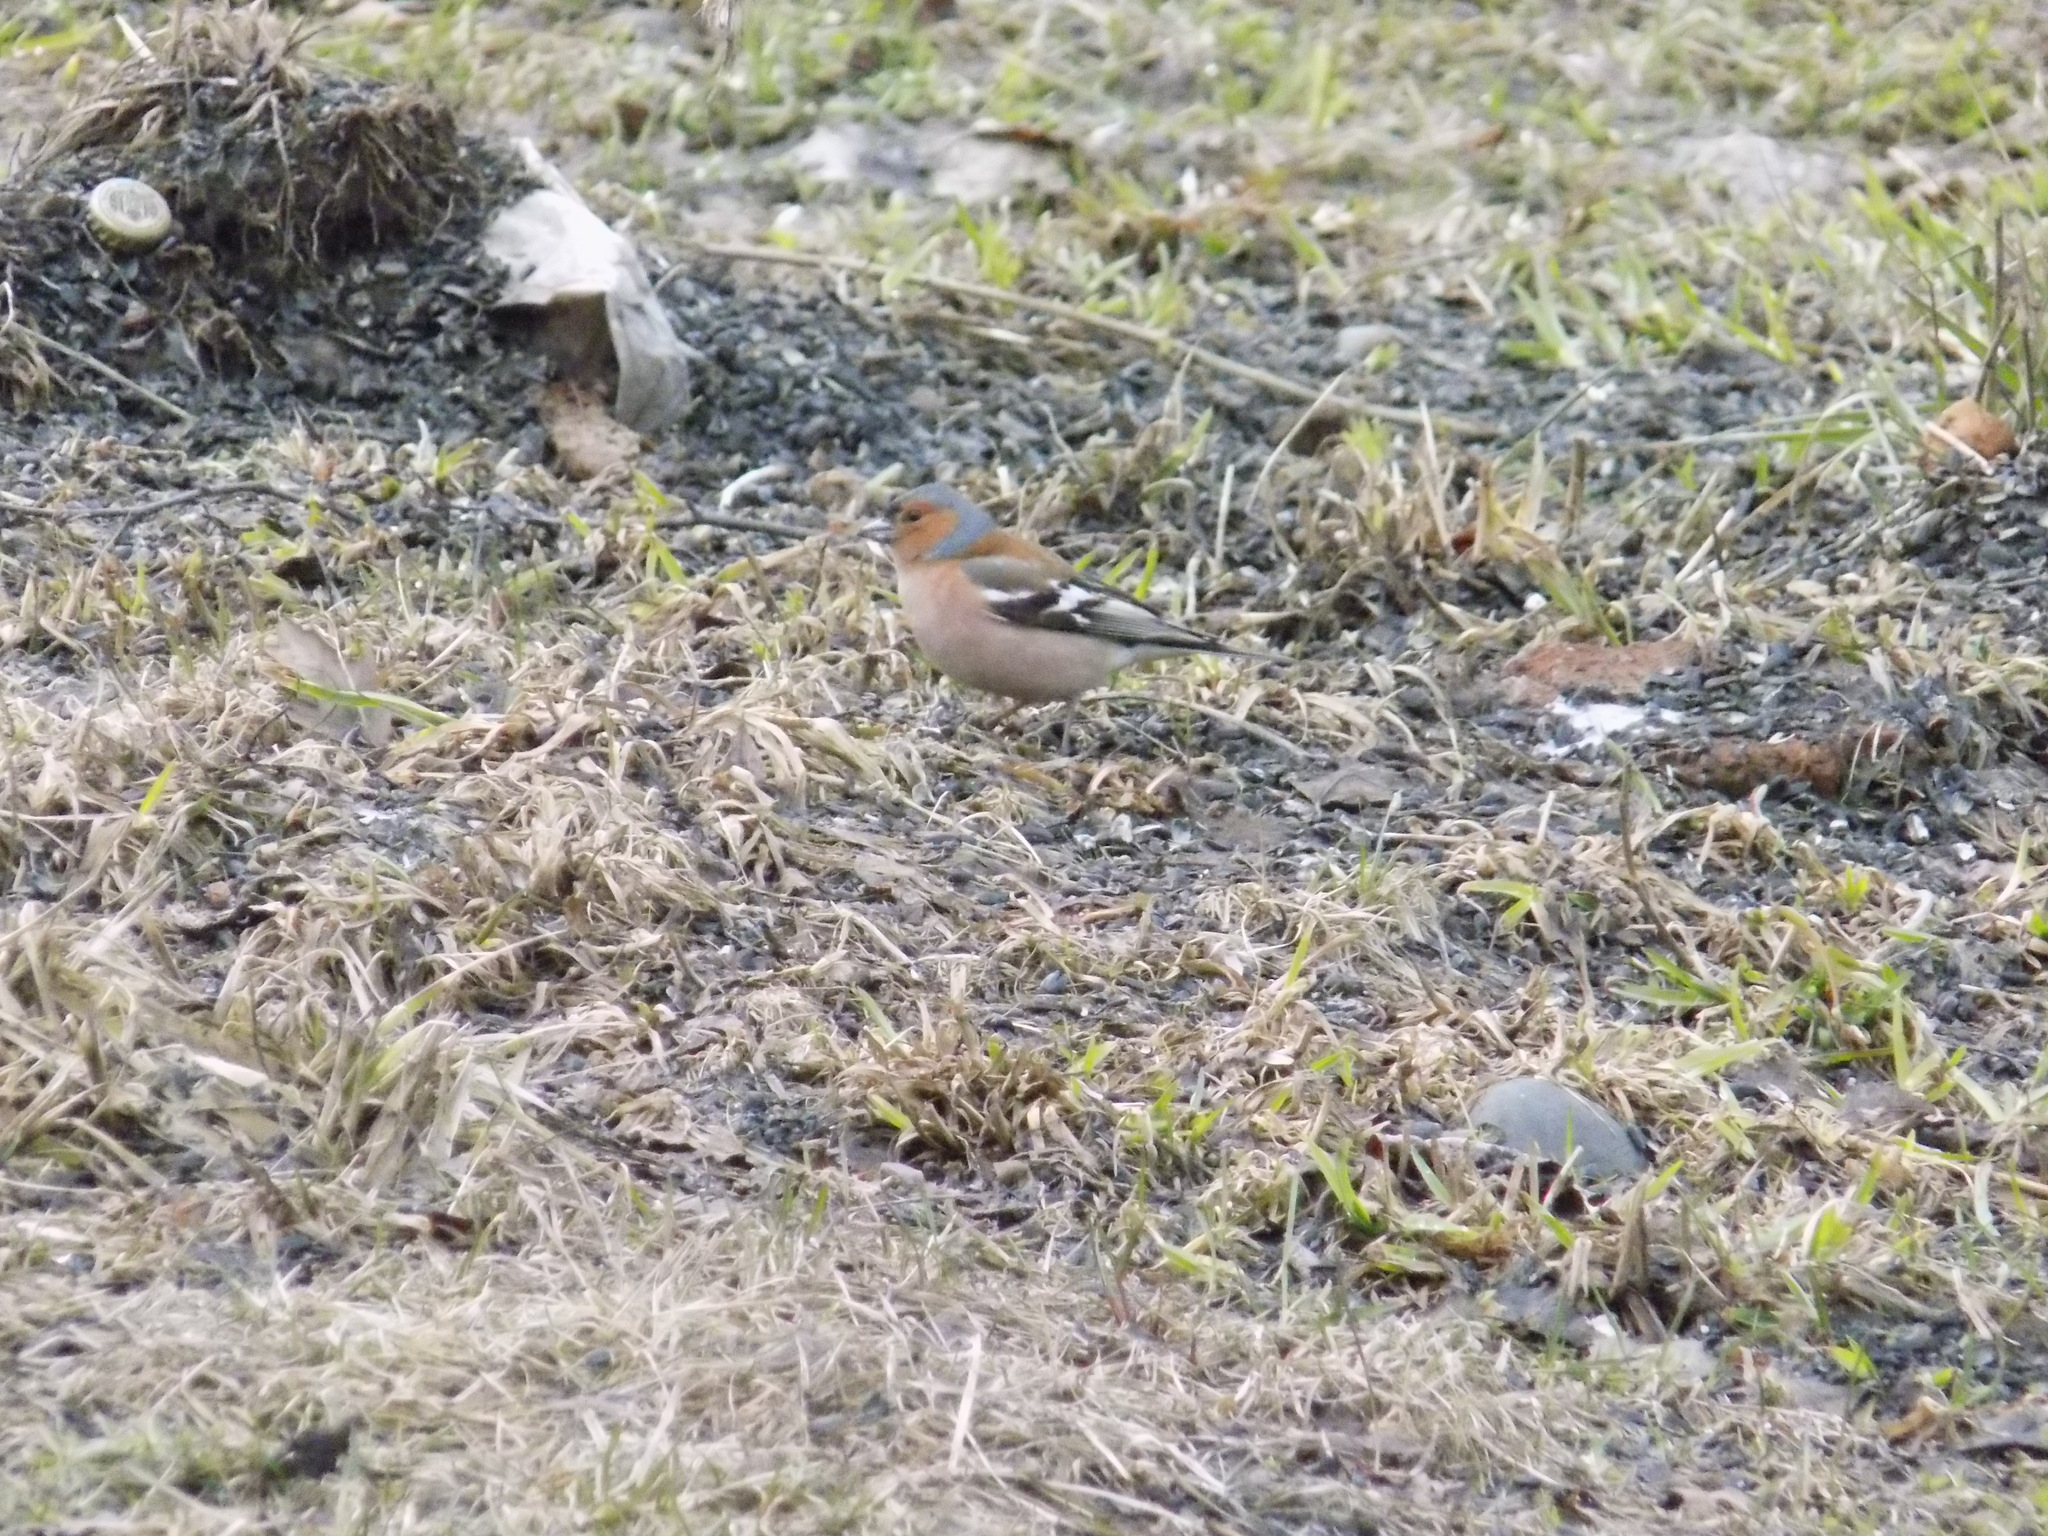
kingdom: Animalia
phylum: Chordata
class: Aves
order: Passeriformes
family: Fringillidae
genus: Fringilla
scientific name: Fringilla coelebs
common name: Common chaffinch
